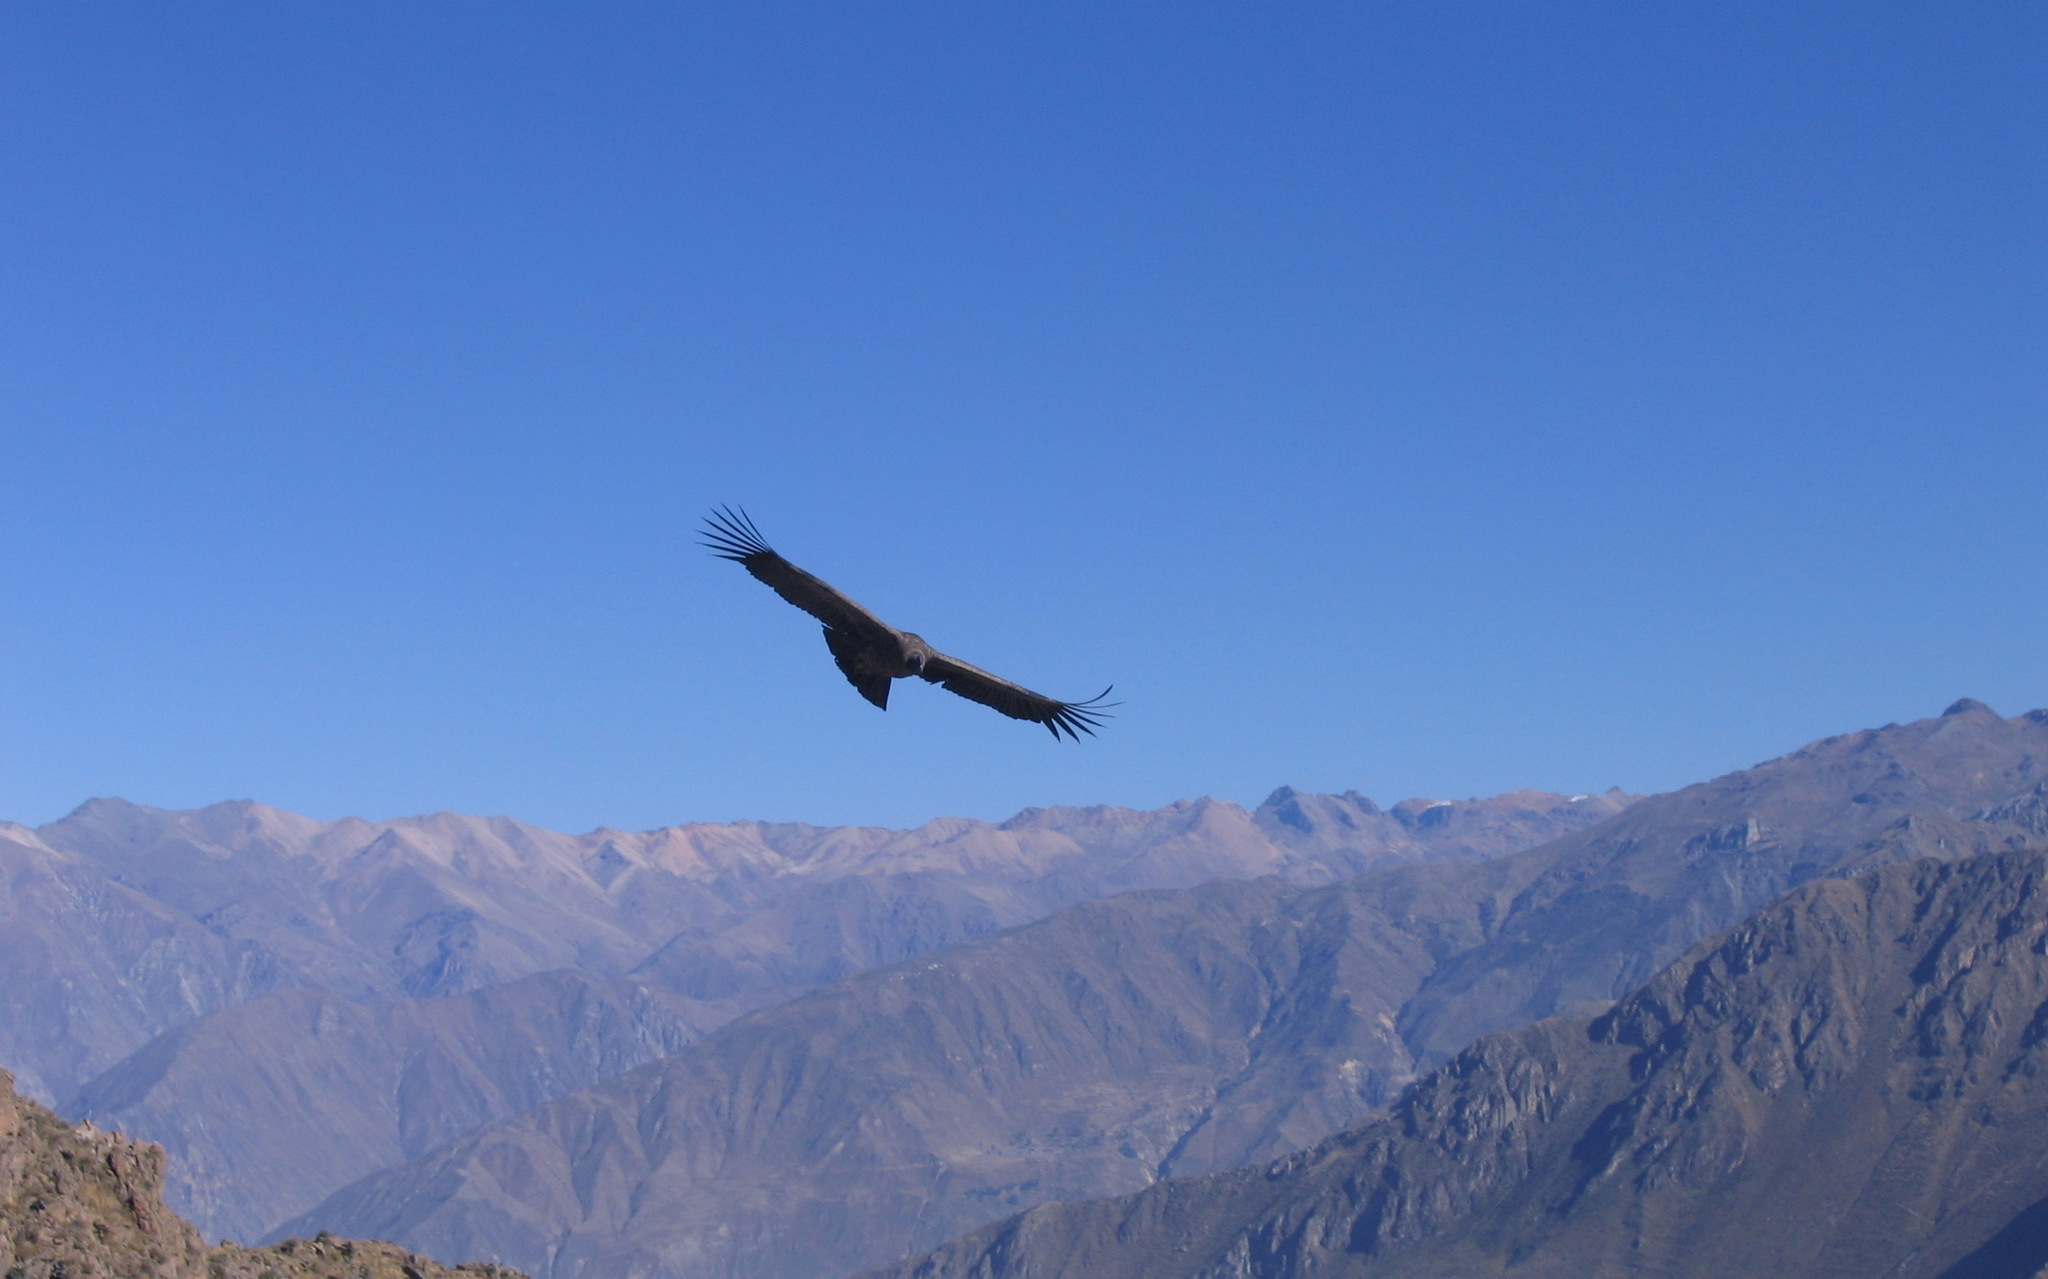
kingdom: Animalia
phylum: Chordata
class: Aves
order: Accipitriformes
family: Cathartidae
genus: Vultur
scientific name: Vultur gryphus
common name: Andean condor
